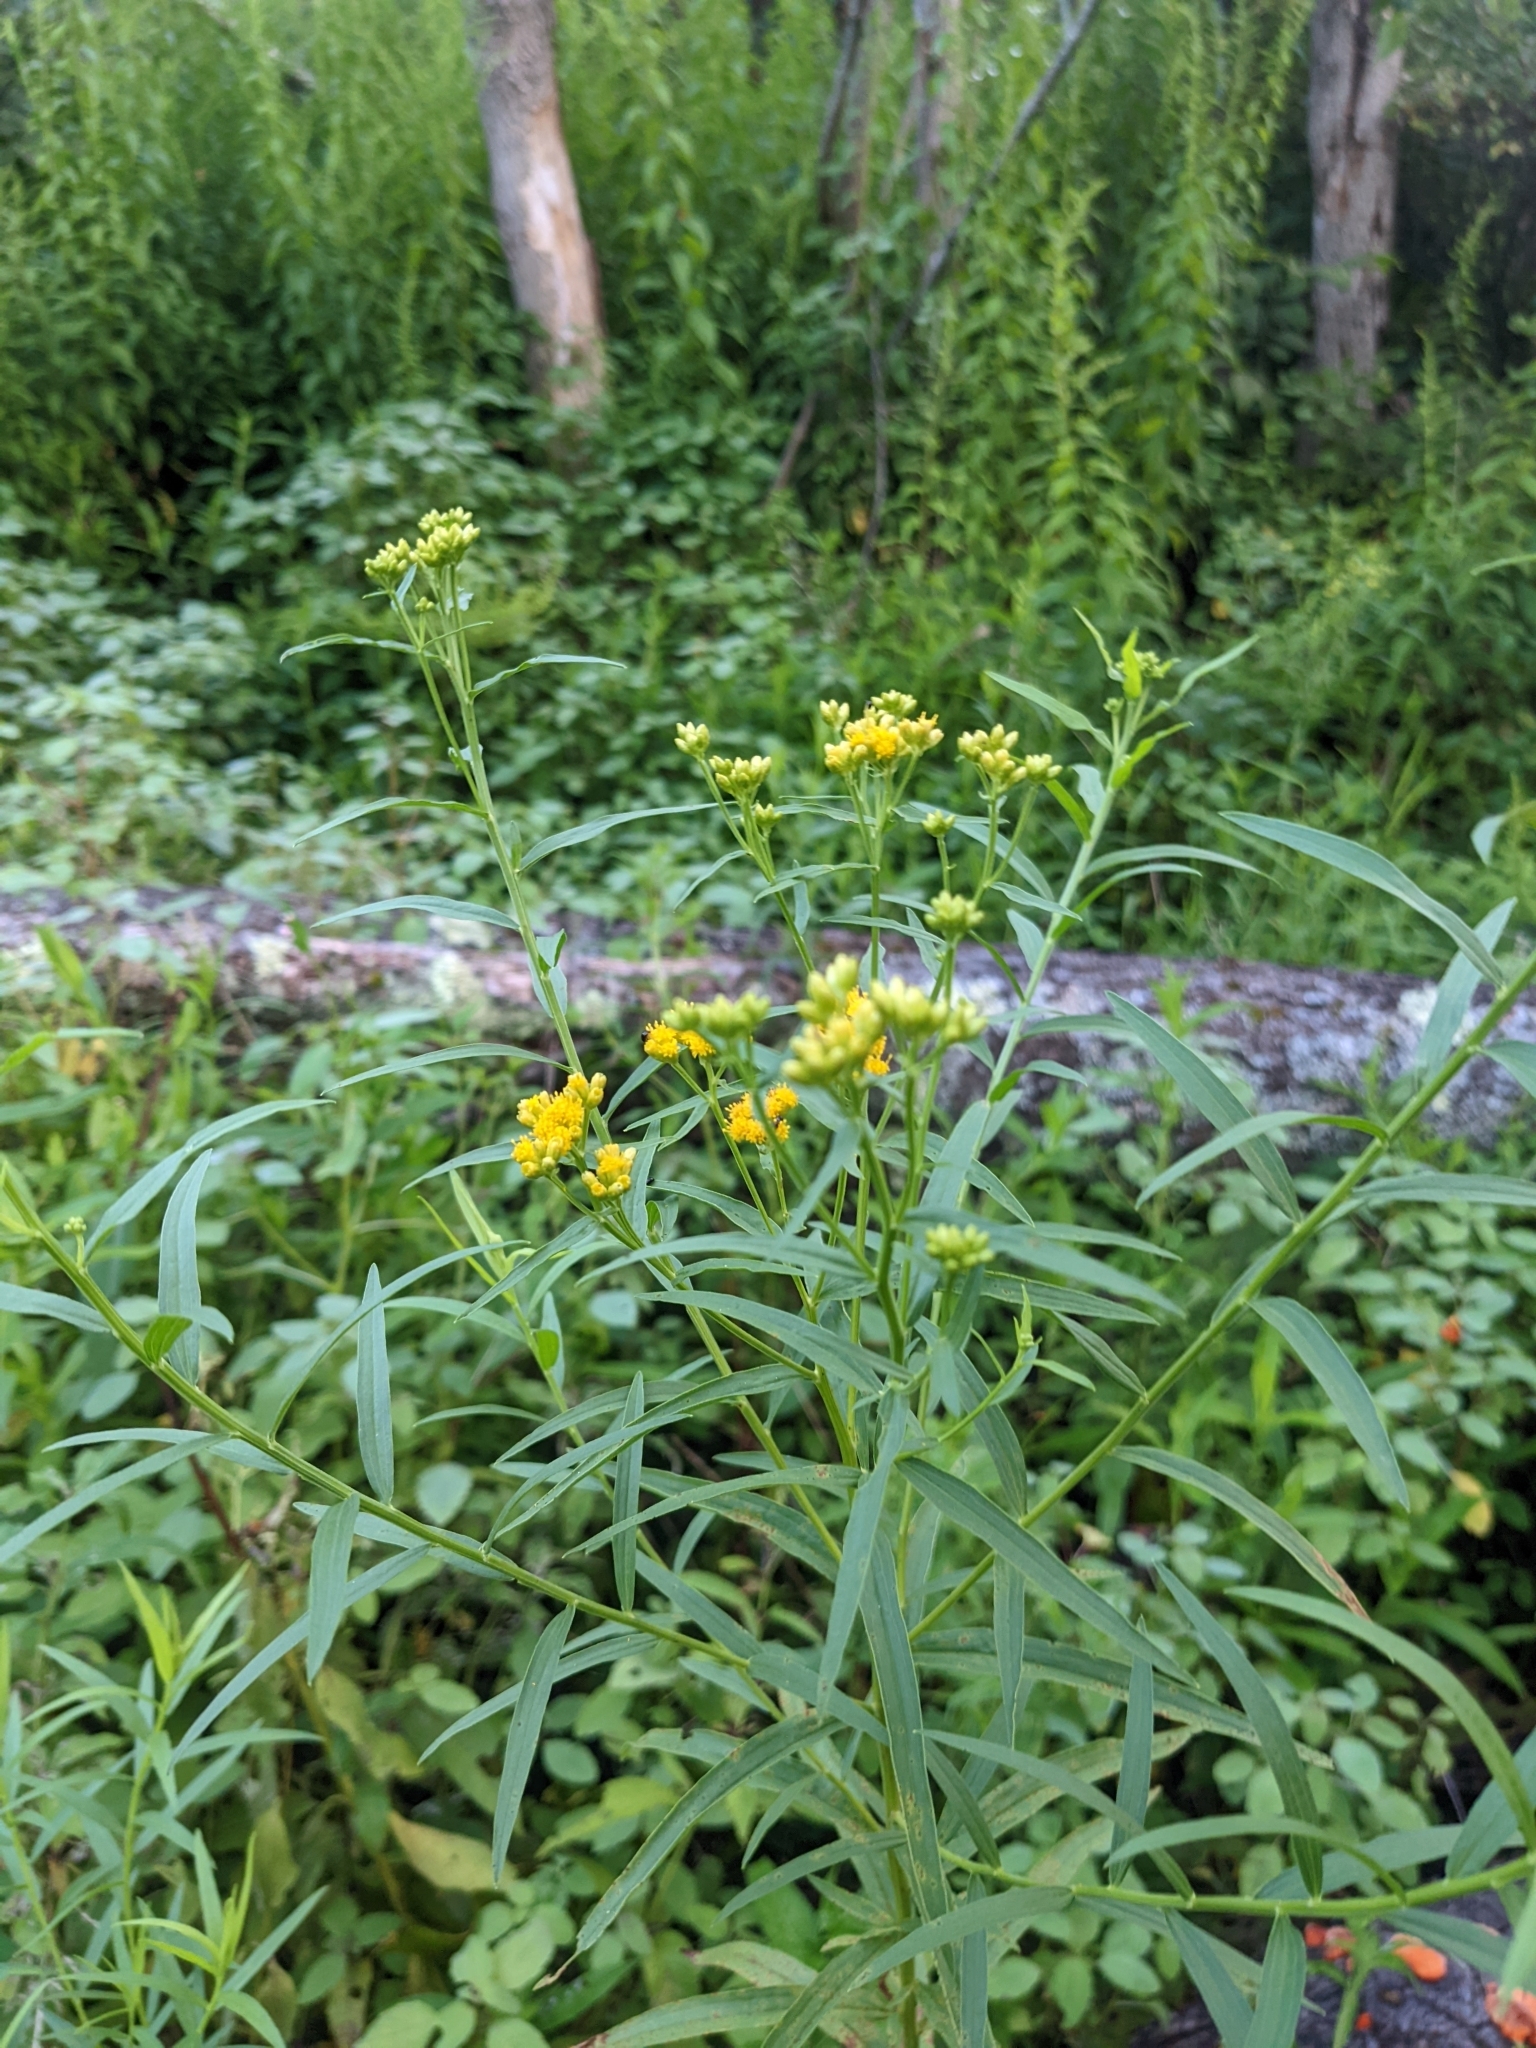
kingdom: Plantae
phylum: Tracheophyta
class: Magnoliopsida
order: Asterales
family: Asteraceae
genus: Euthamia
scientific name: Euthamia graminifolia
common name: Common goldentop
